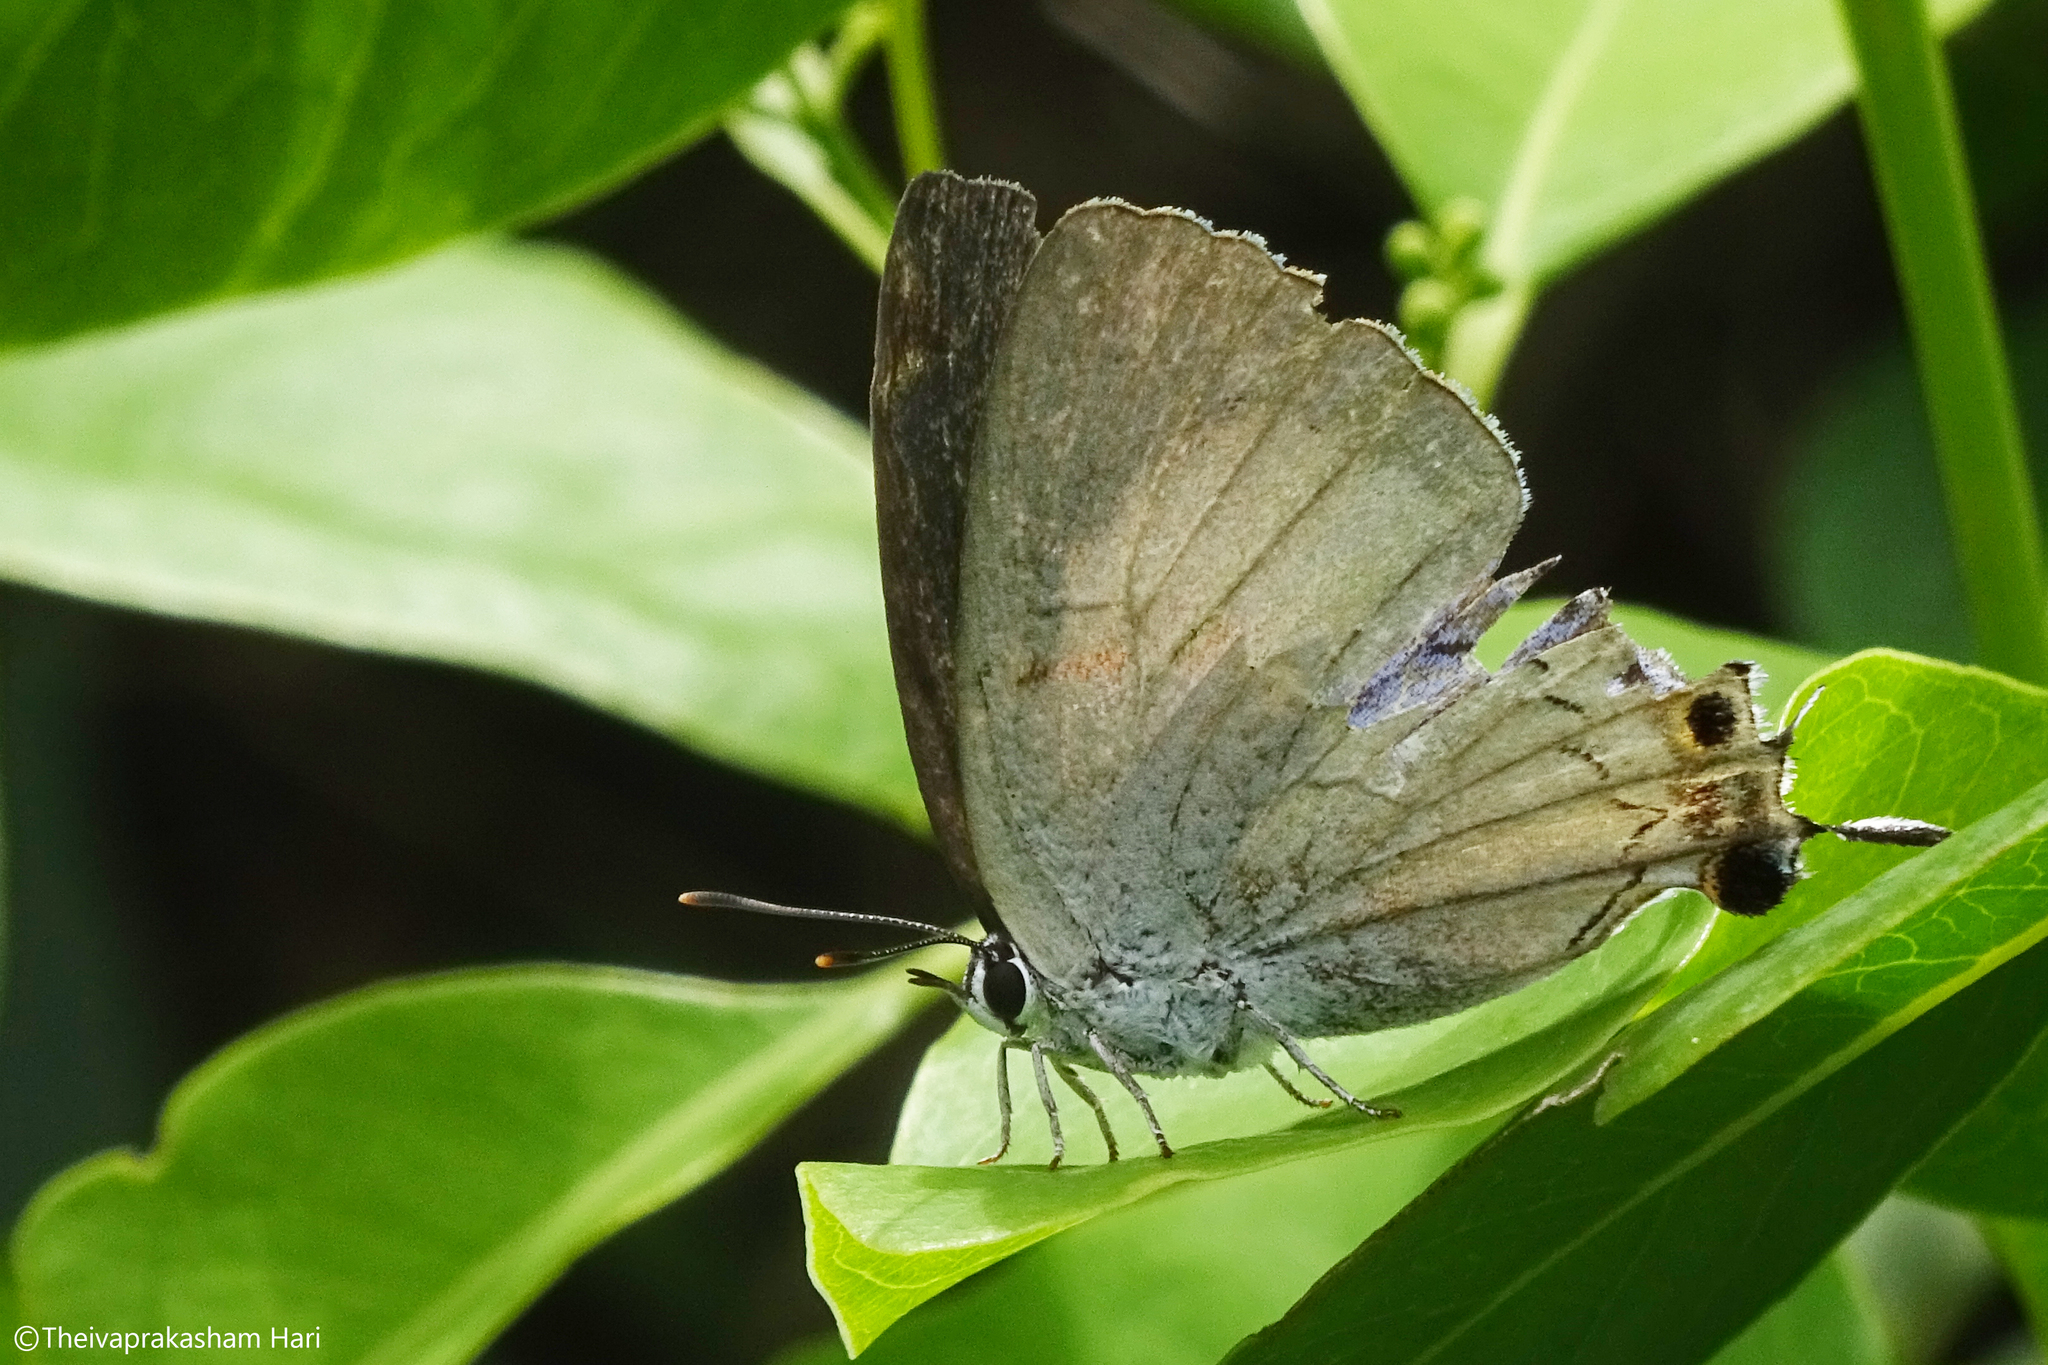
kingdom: Animalia
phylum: Arthropoda
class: Insecta
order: Lepidoptera
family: Lycaenidae
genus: Tajuria
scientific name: Tajuria cippus
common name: Peacock royal
